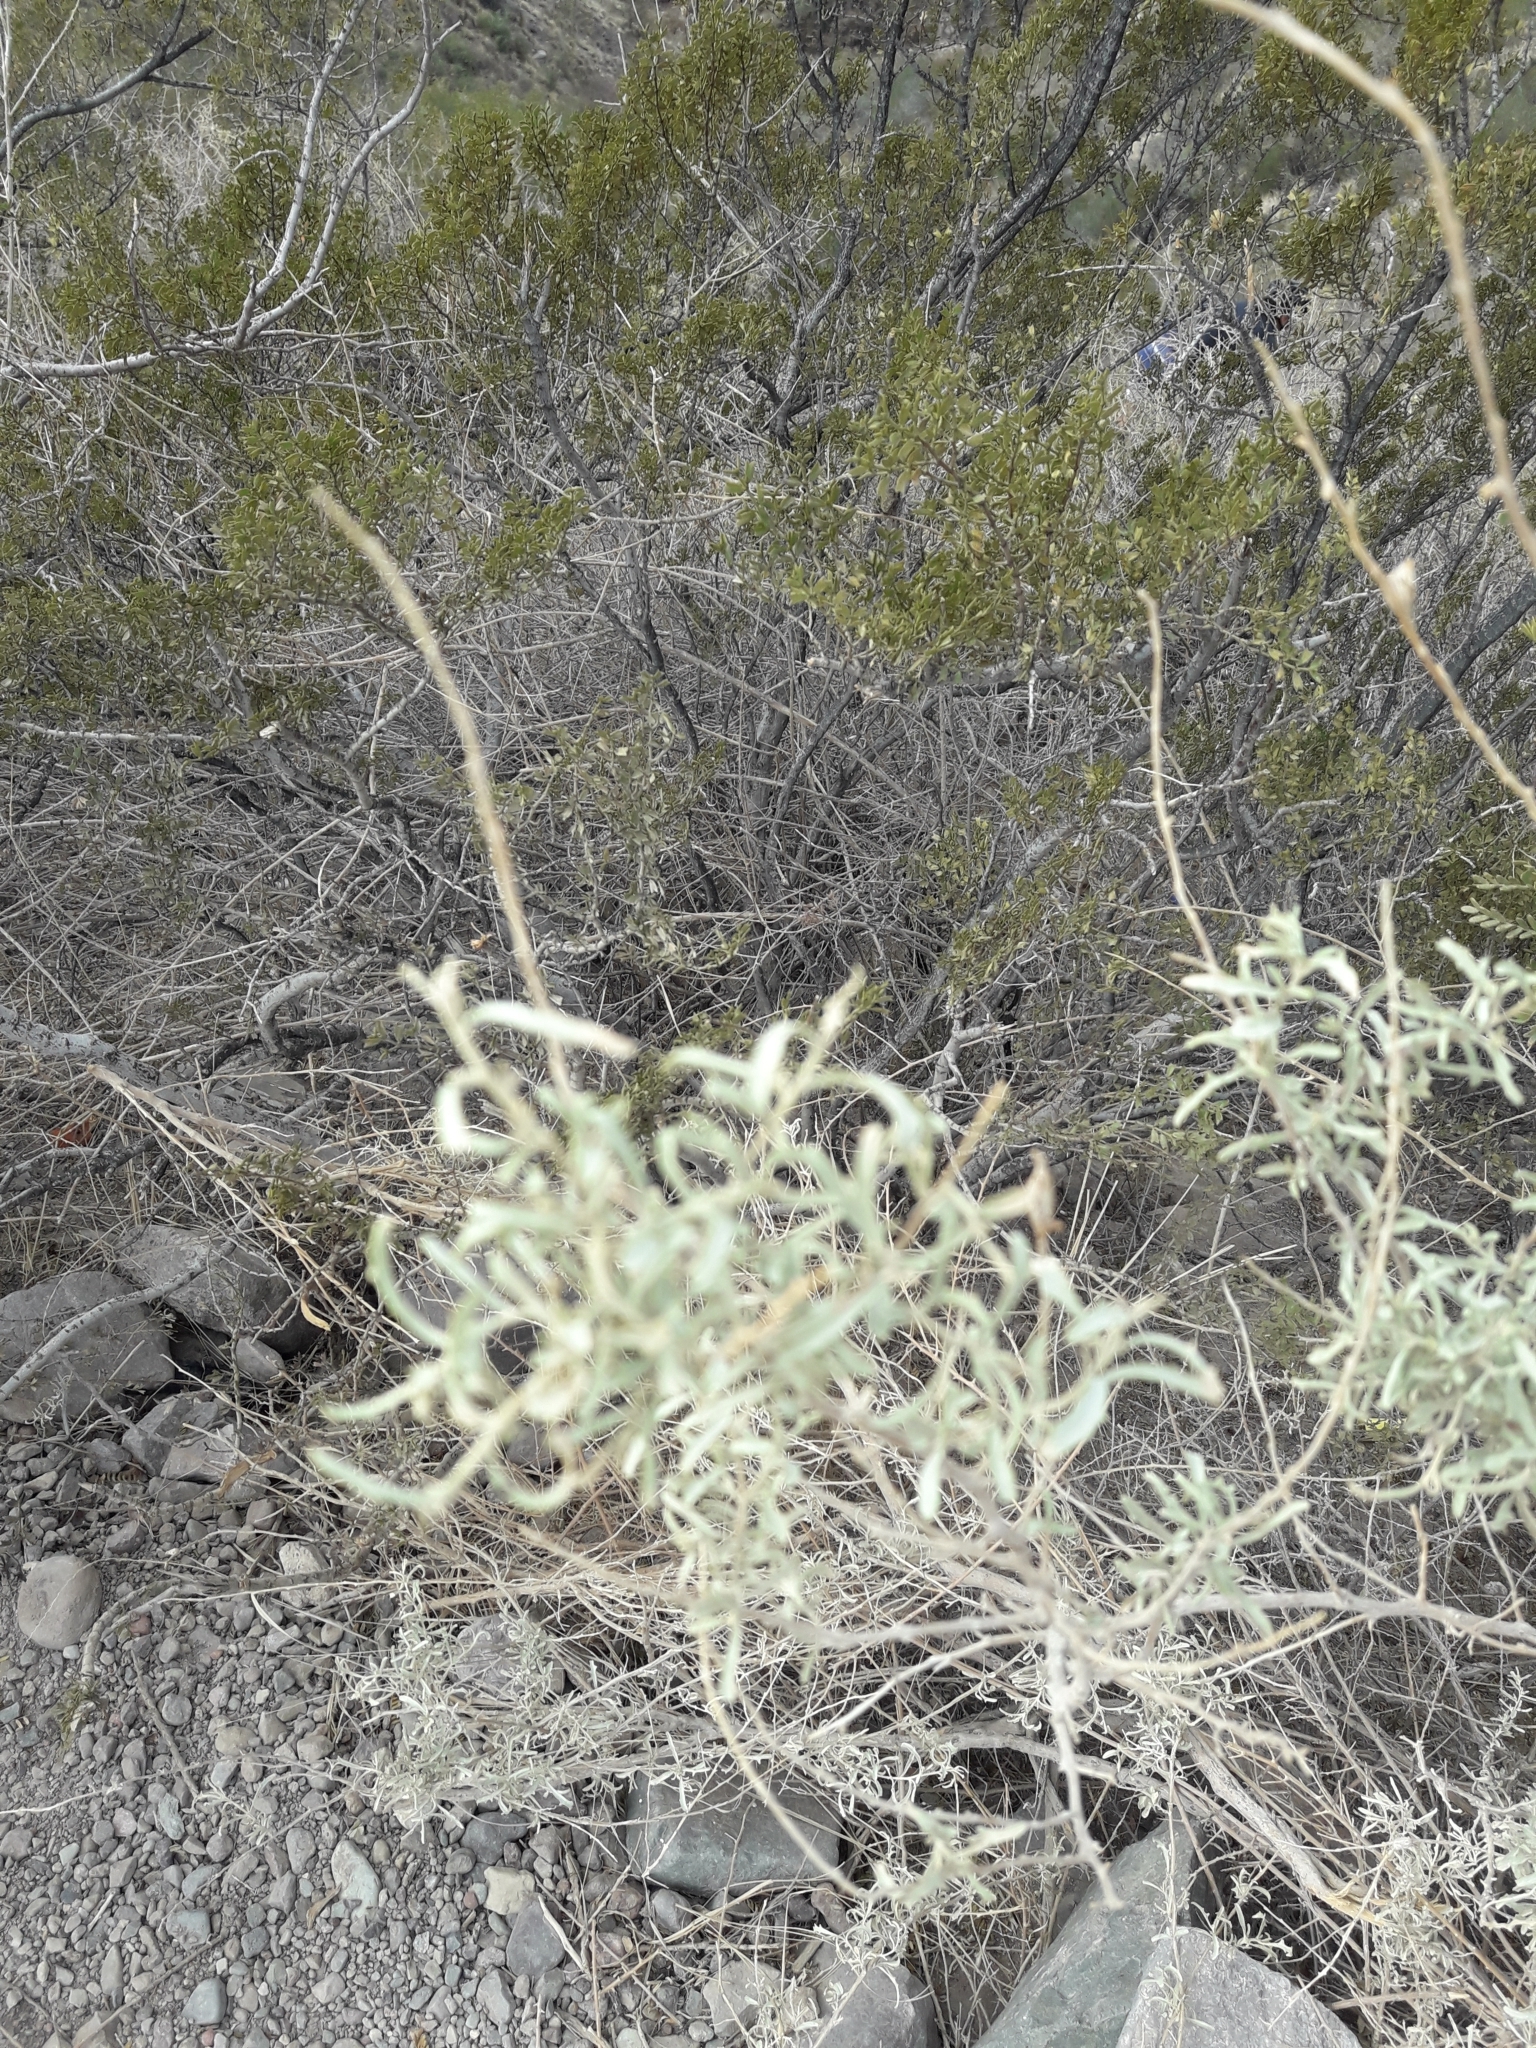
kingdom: Plantae
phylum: Tracheophyta
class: Magnoliopsida
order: Caryophyllales
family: Amaranthaceae
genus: Atriplex
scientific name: Atriplex lampa
